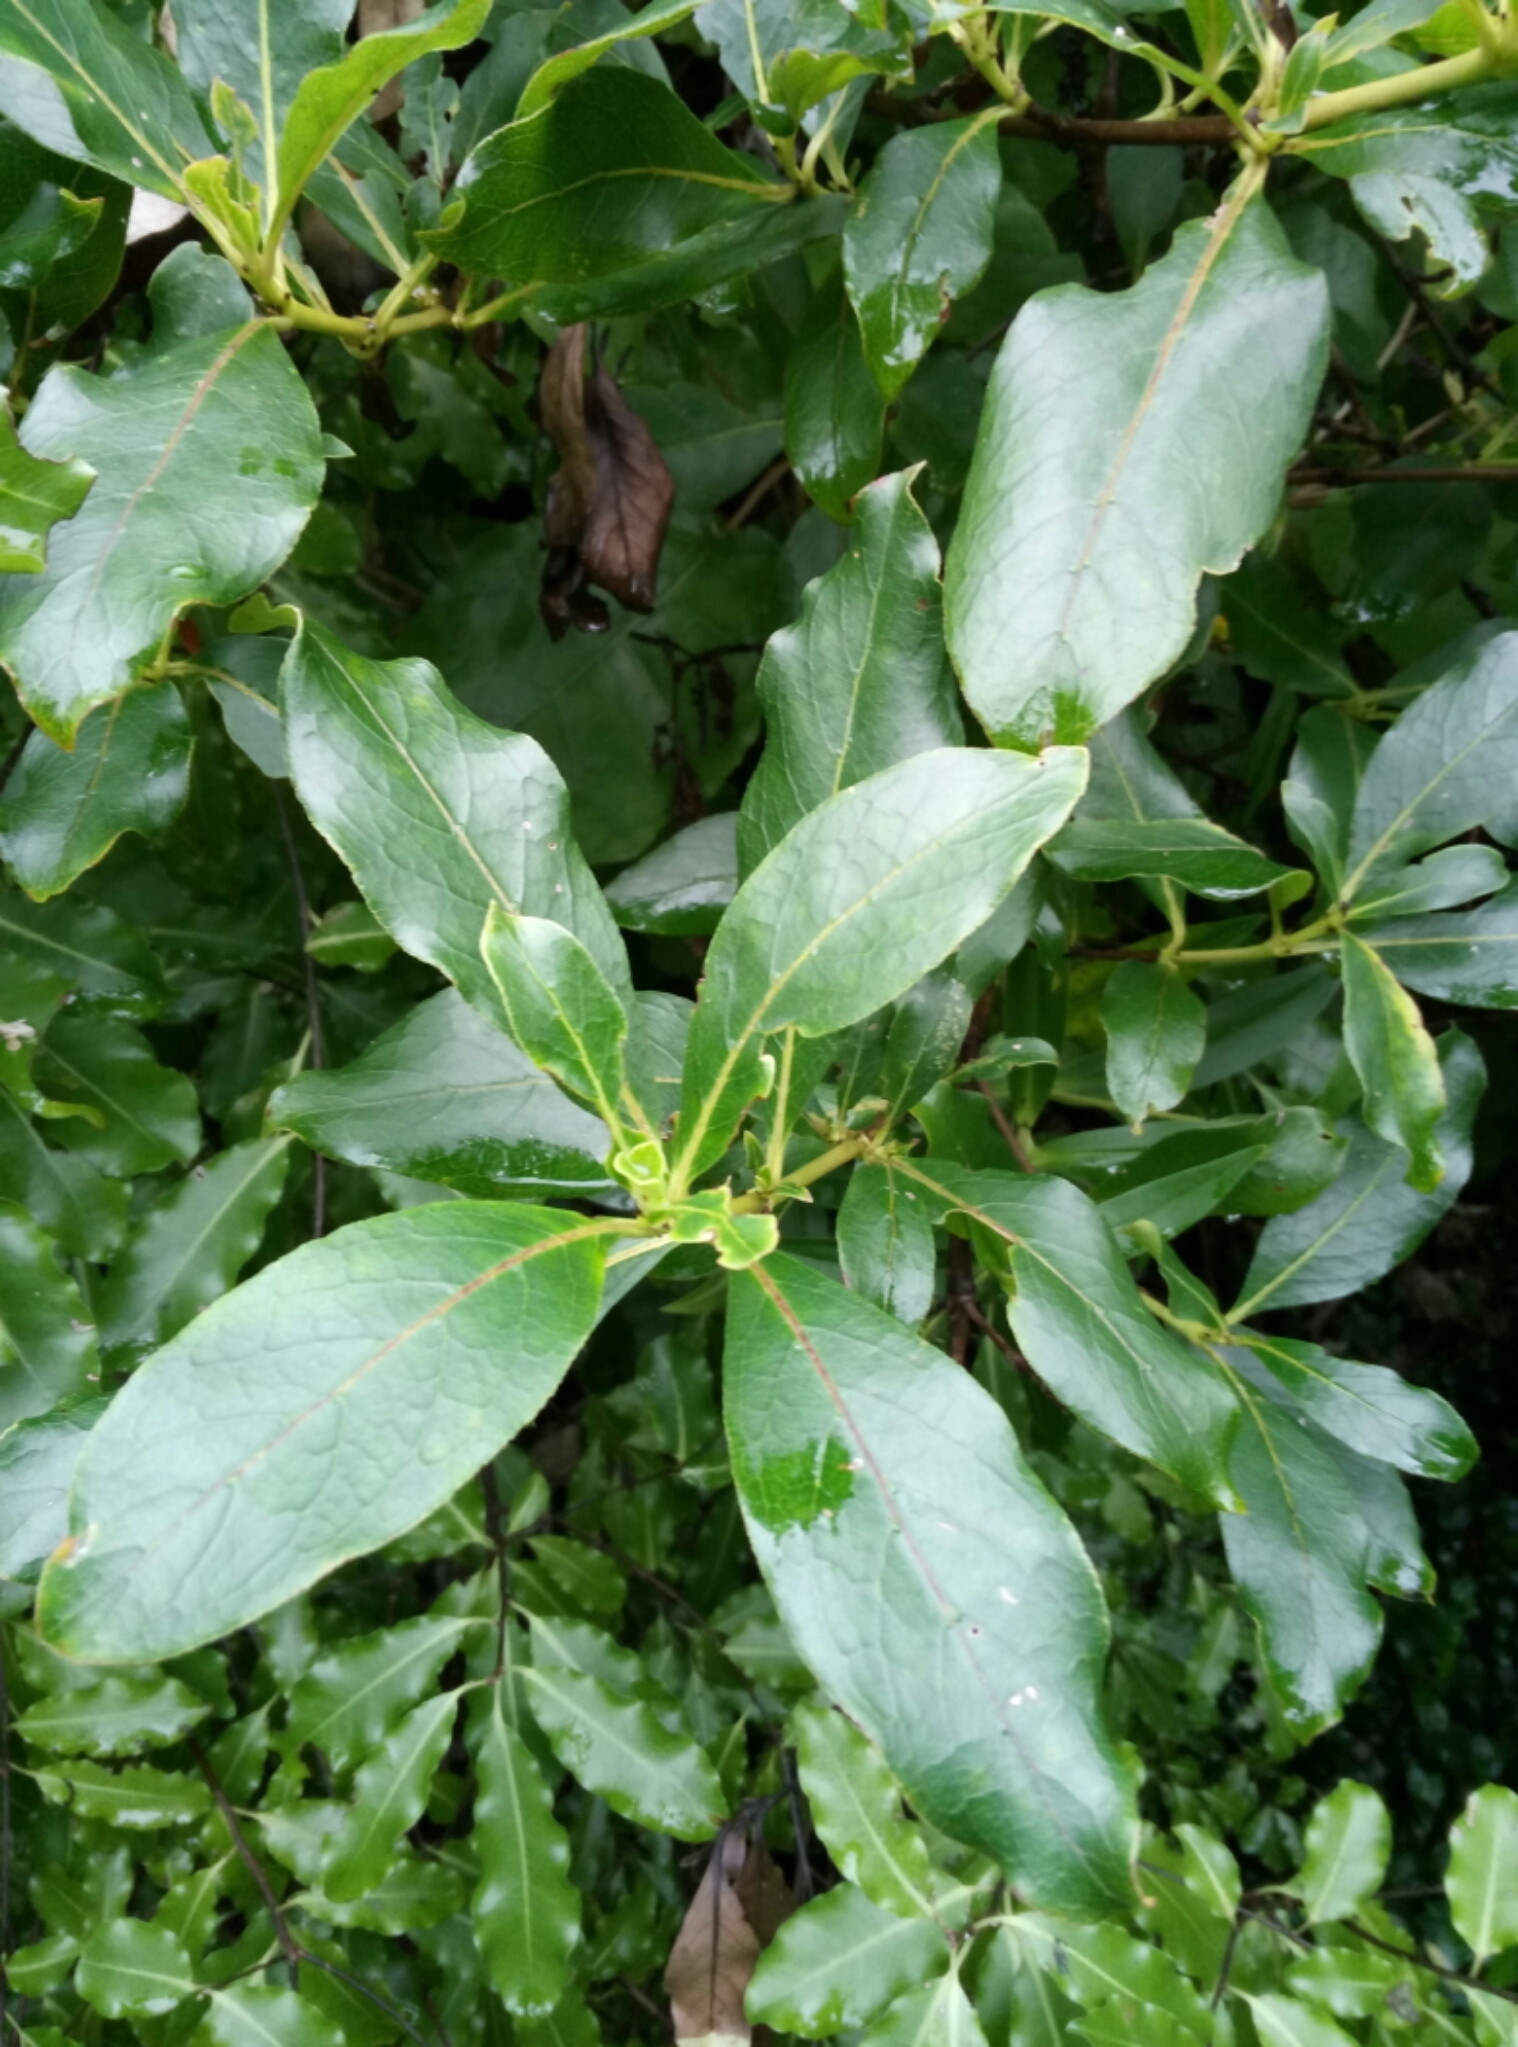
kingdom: Plantae
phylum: Tracheophyta
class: Magnoliopsida
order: Gentianales
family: Rubiaceae
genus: Coprosma
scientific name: Coprosma lucida
